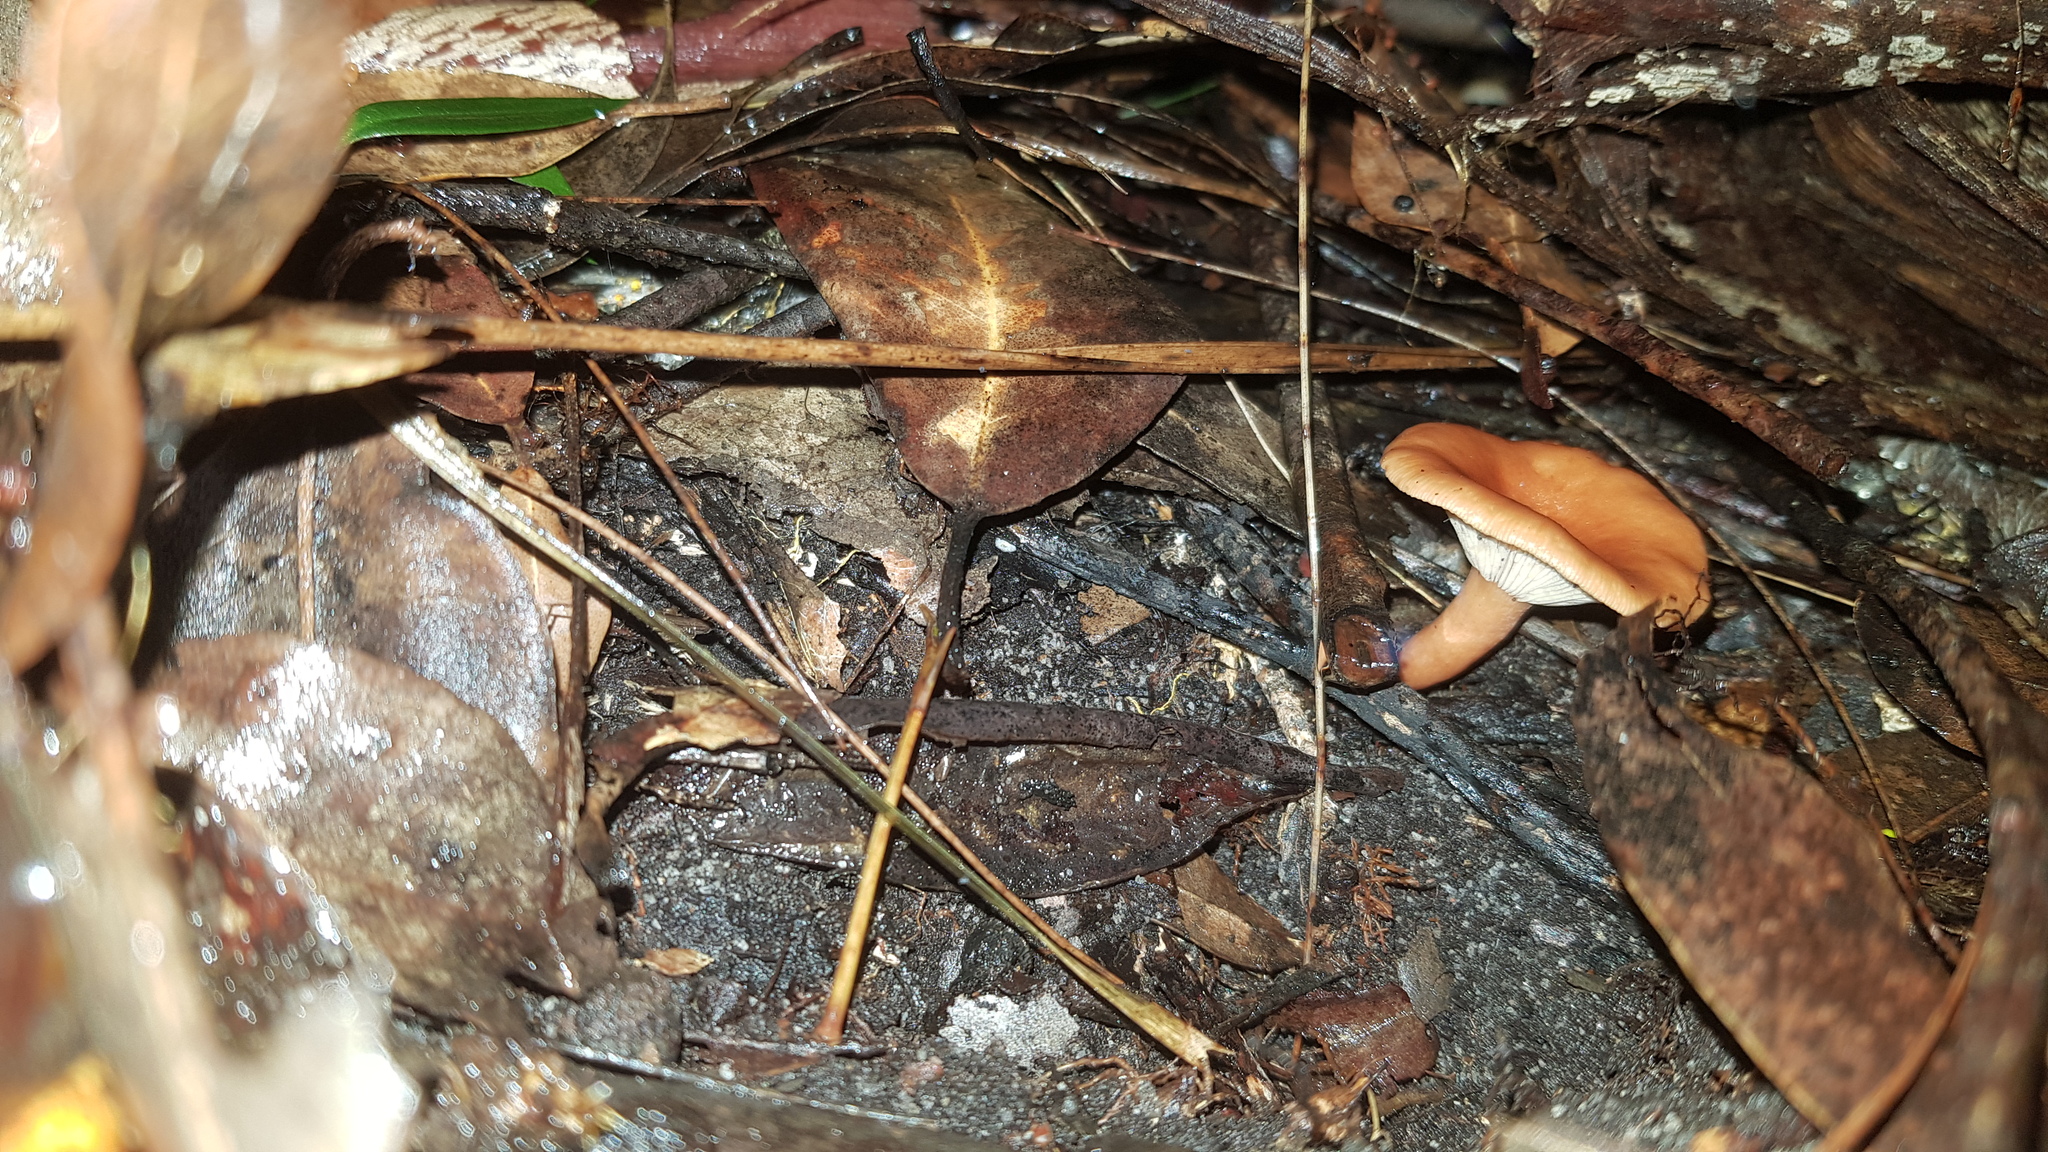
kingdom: Fungi
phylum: Basidiomycota
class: Agaricomycetes
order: Russulales
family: Russulaceae
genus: Lactarius
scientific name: Lactarius eucalypti
